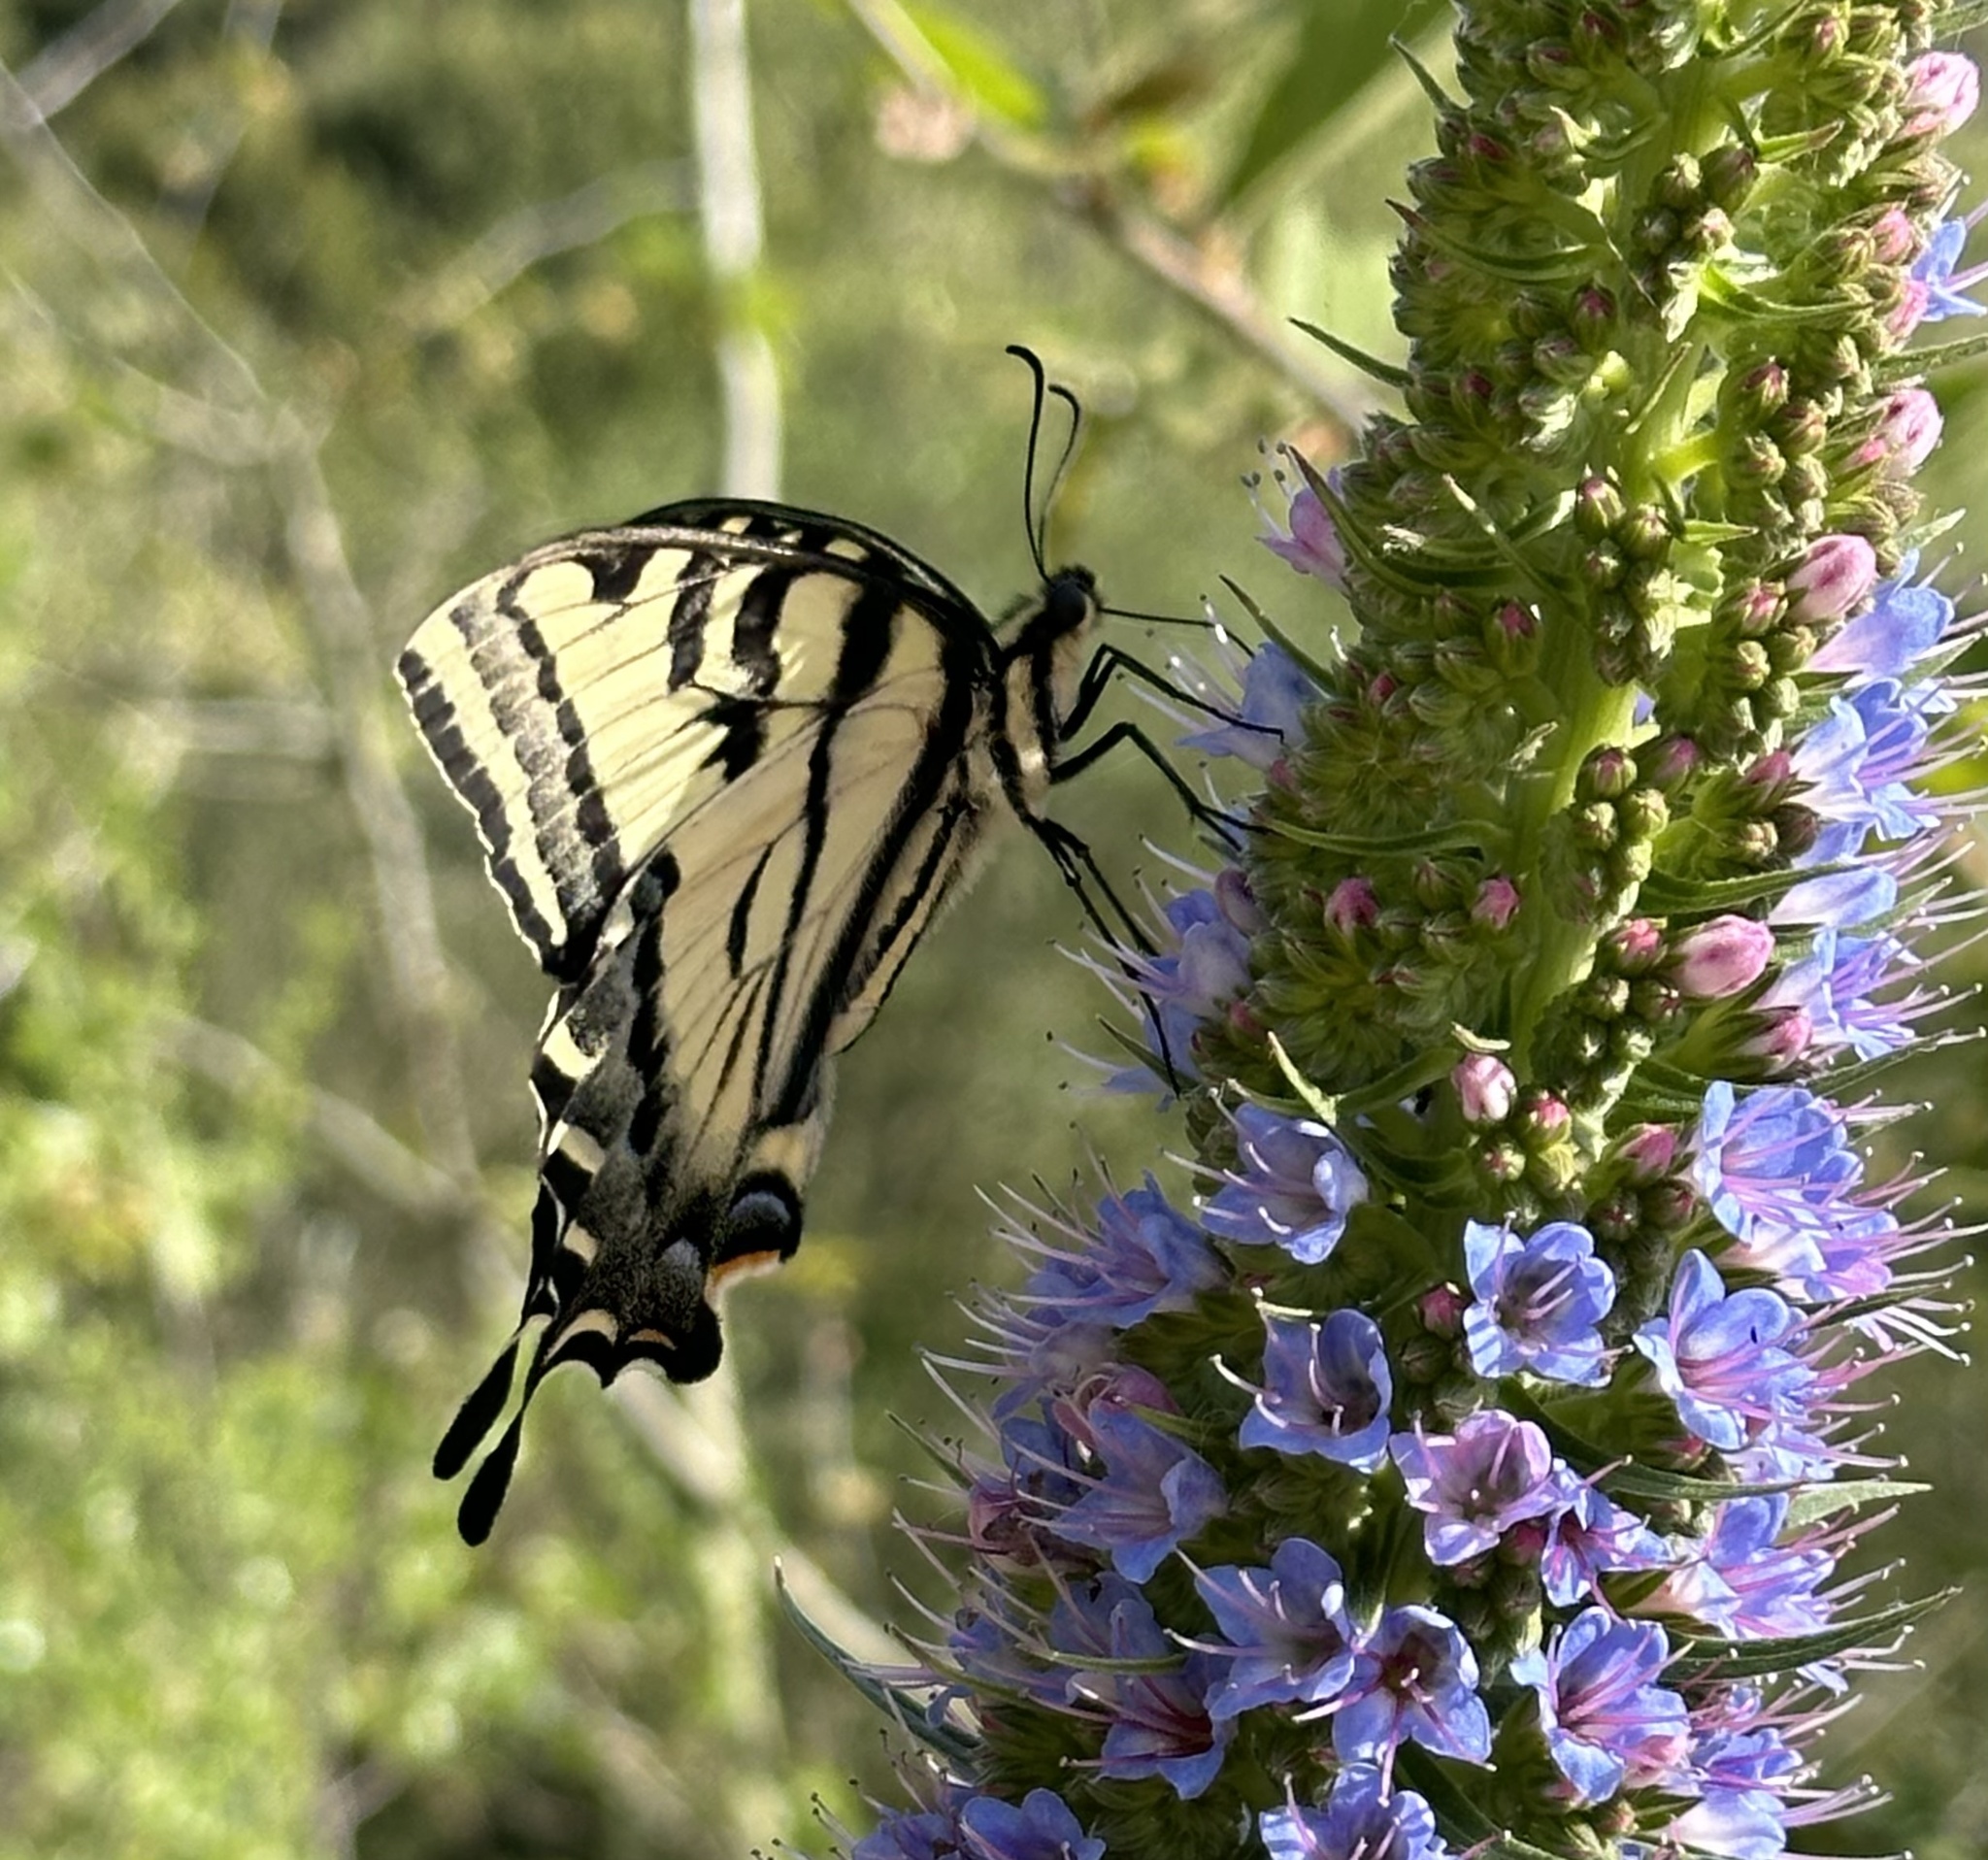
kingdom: Animalia
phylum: Arthropoda
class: Insecta
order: Lepidoptera
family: Papilionidae
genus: Papilio
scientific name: Papilio rutulus
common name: Western tiger swallowtail
